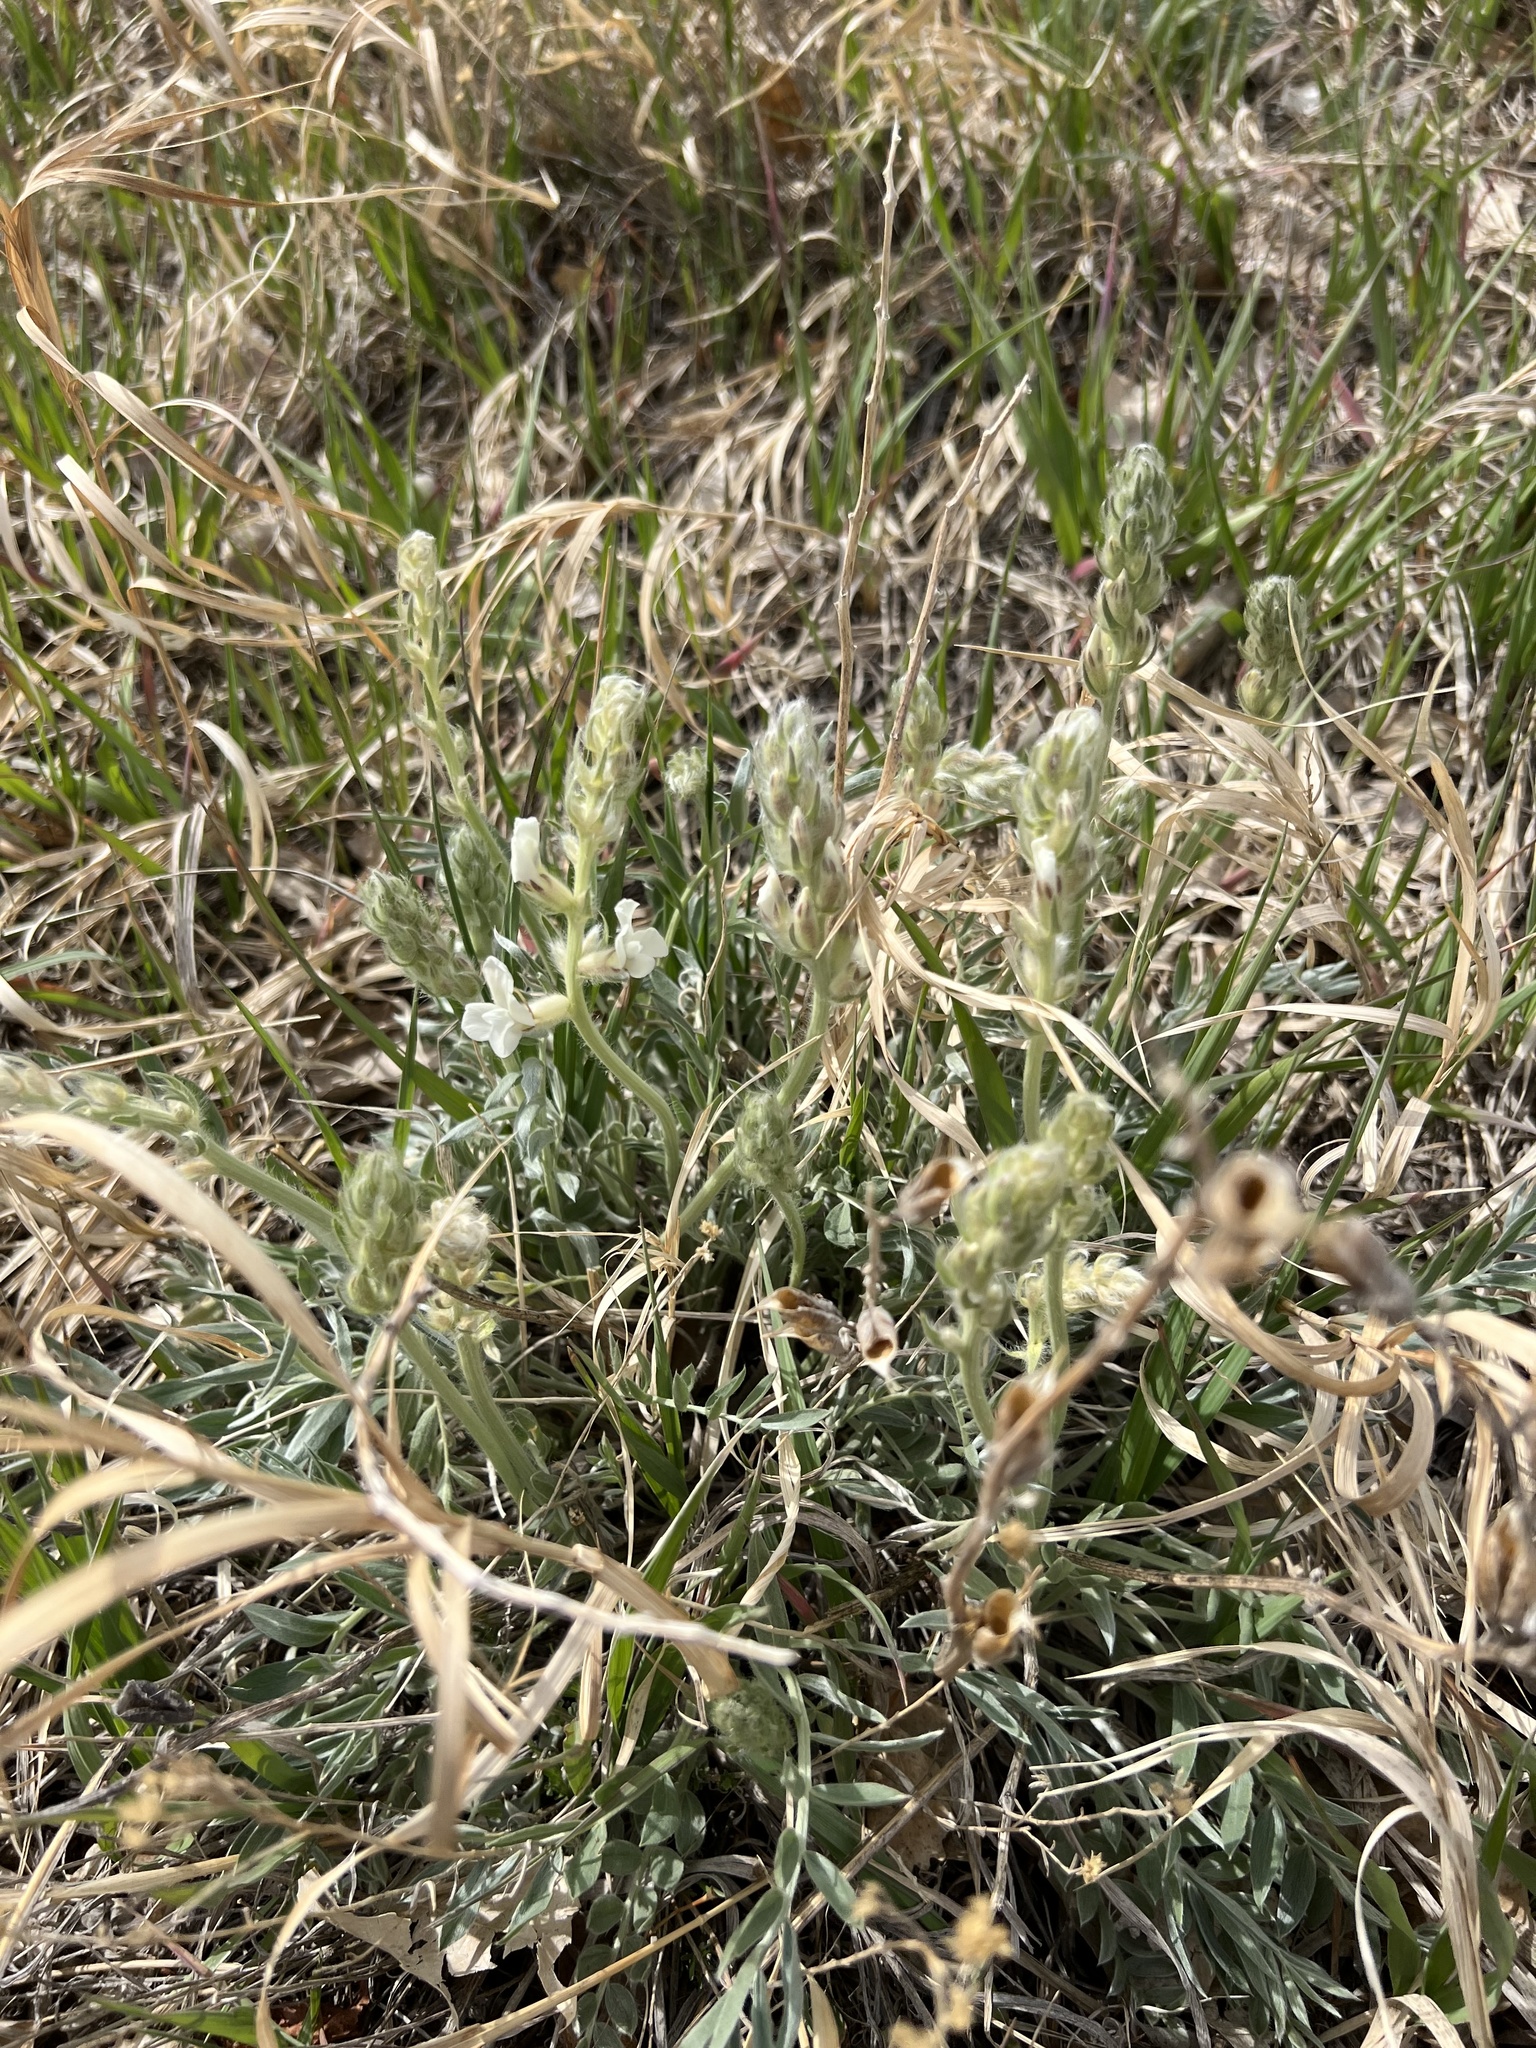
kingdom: Plantae
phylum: Tracheophyta
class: Magnoliopsida
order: Fabales
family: Fabaceae
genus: Oxytropis
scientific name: Oxytropis sericea
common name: Silky locoweed
